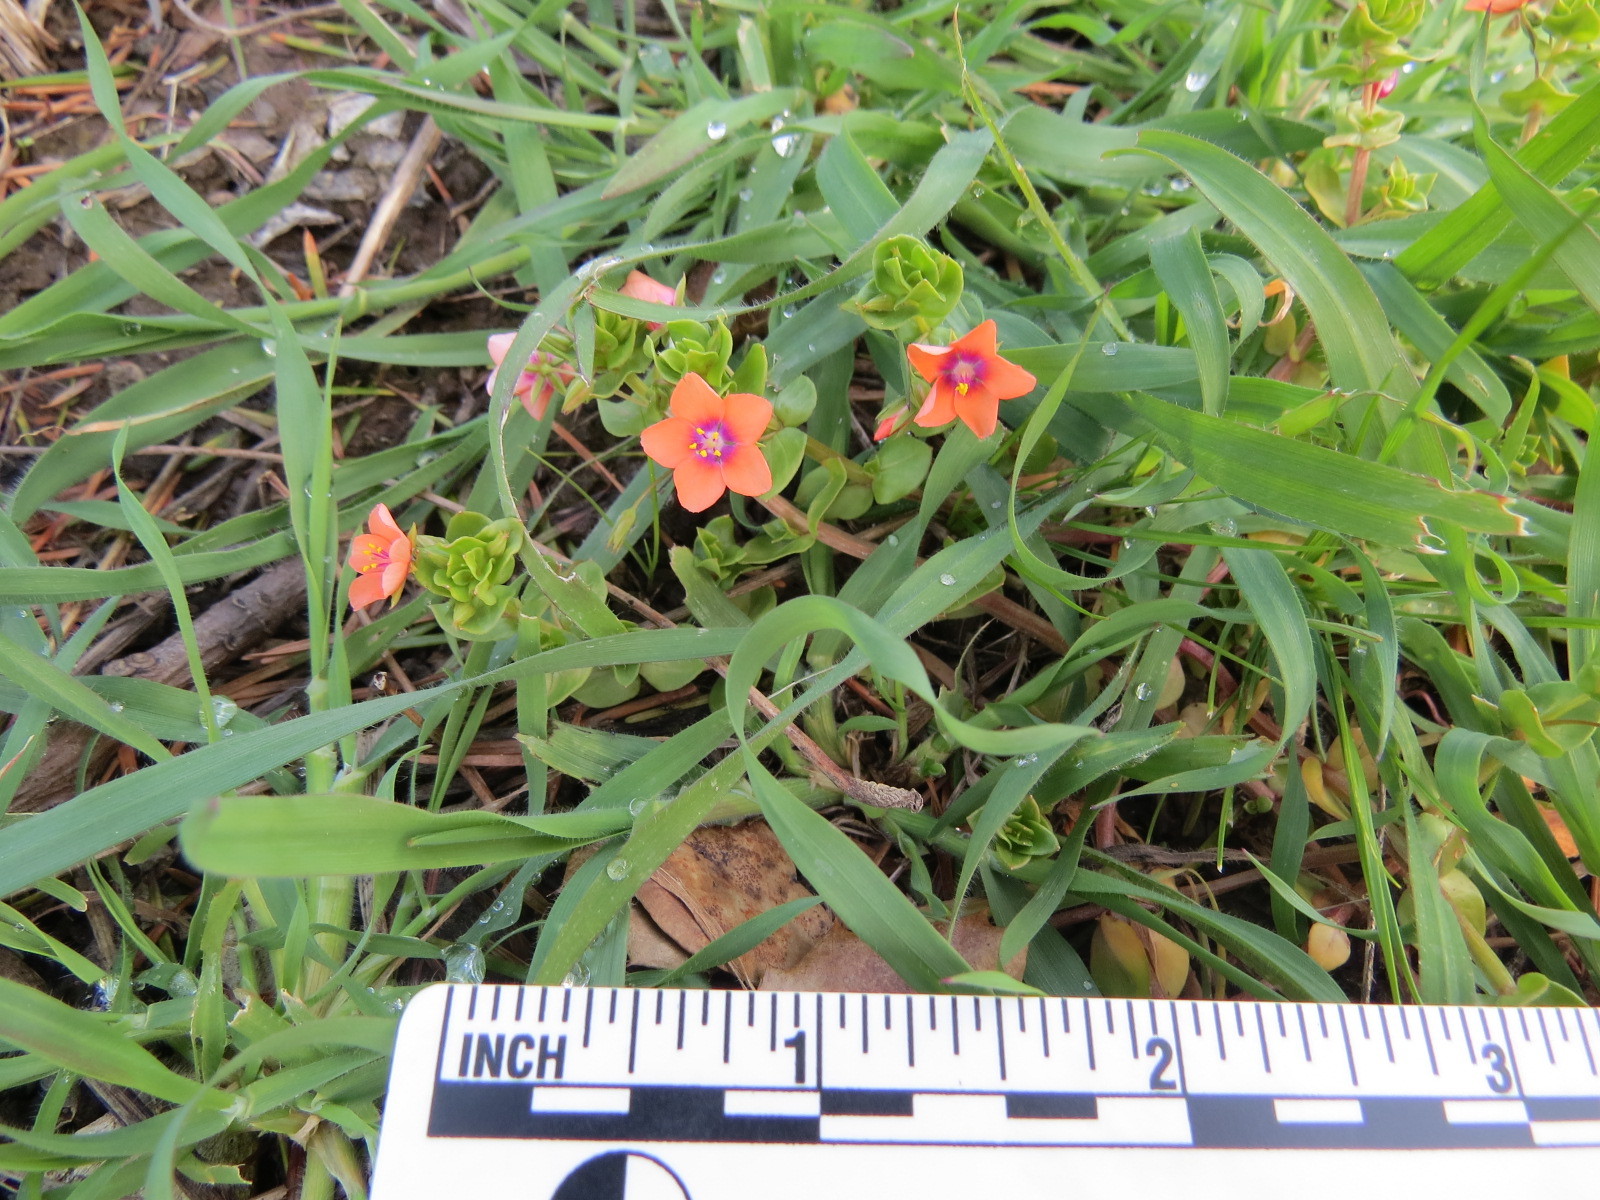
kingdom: Plantae
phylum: Tracheophyta
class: Magnoliopsida
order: Ericales
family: Primulaceae
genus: Lysimachia
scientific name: Lysimachia arvensis
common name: Scarlet pimpernel
